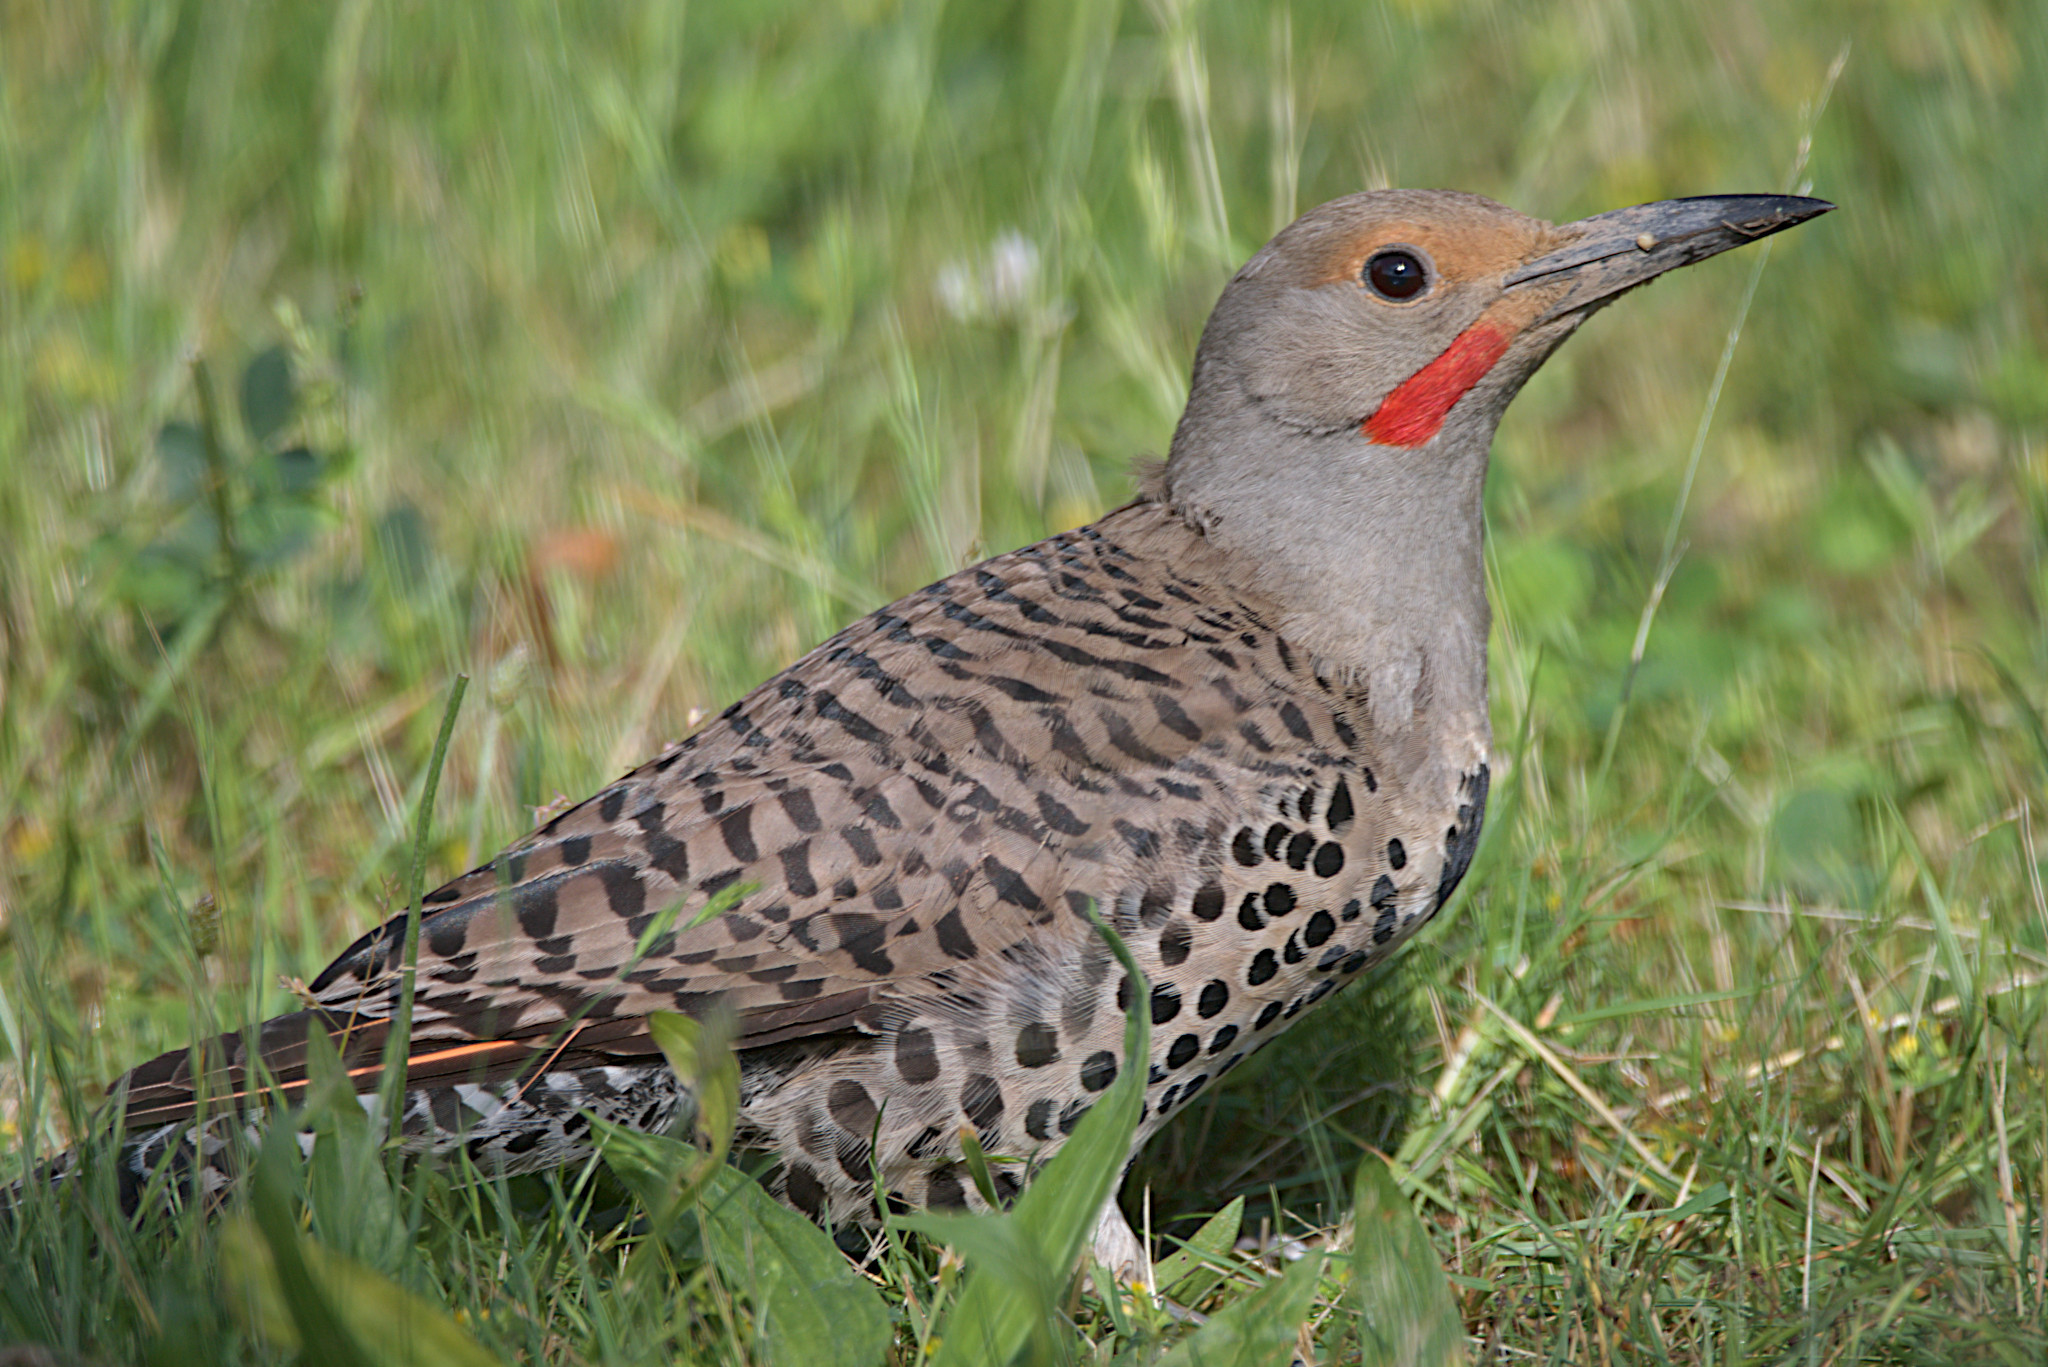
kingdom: Animalia
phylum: Chordata
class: Aves
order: Piciformes
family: Picidae
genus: Colaptes
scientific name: Colaptes auratus
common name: Northern flicker
